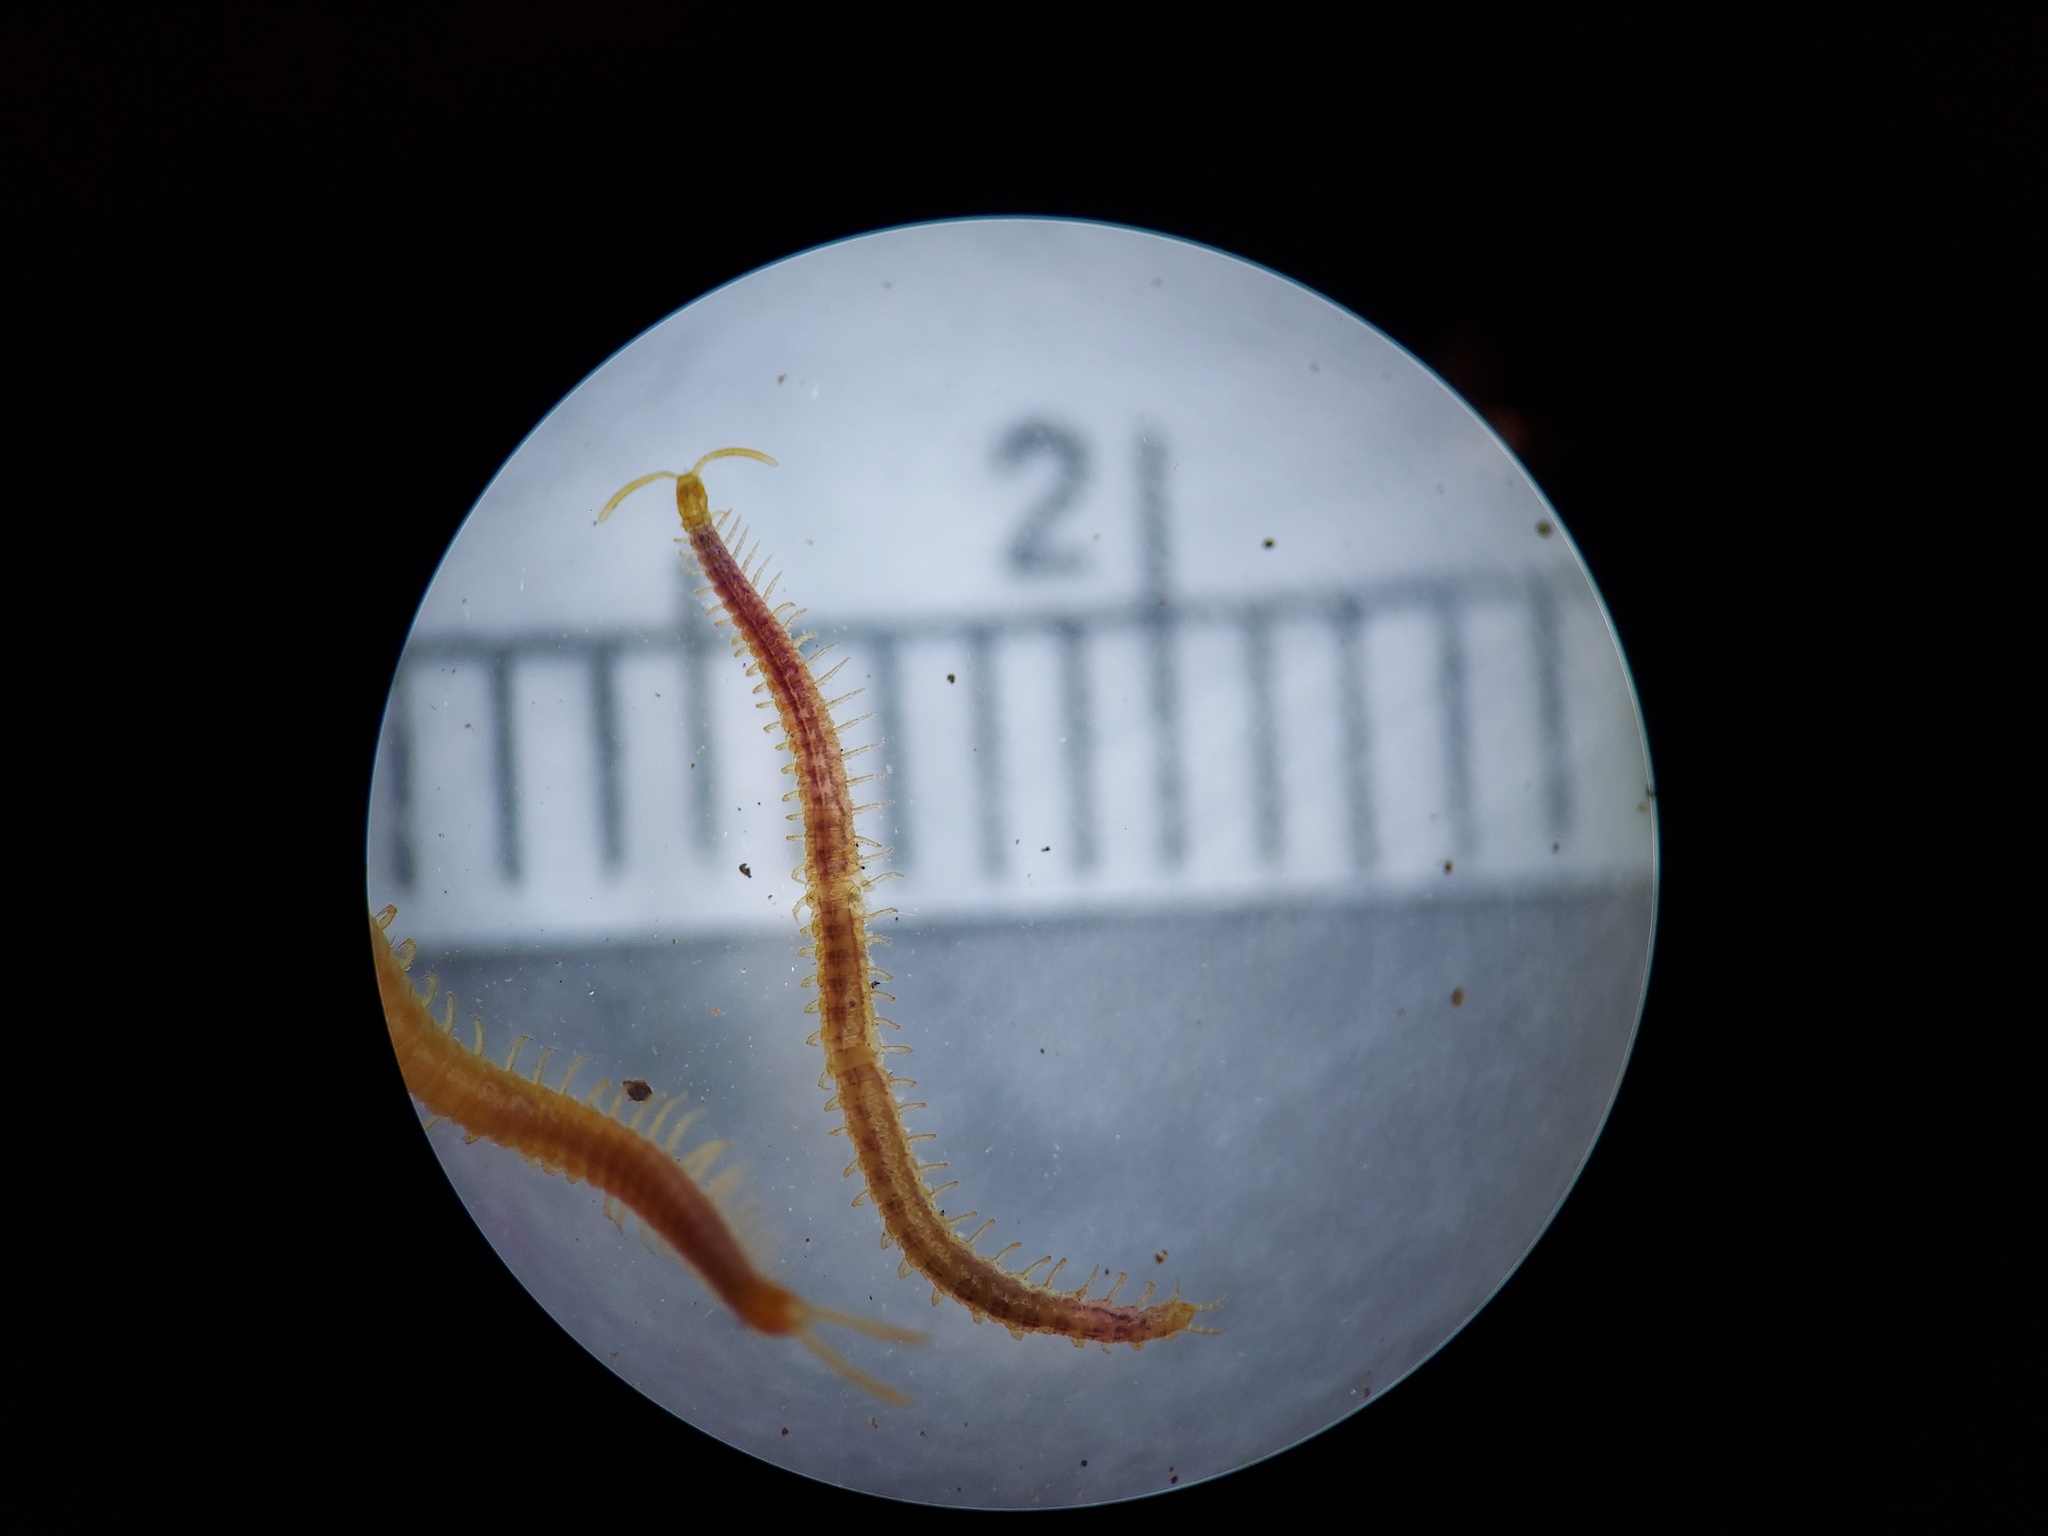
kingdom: Animalia
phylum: Arthropoda
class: Chilopoda
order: Geophilomorpha
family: Linotaeniidae
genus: Strigamia
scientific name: Strigamia branneri
